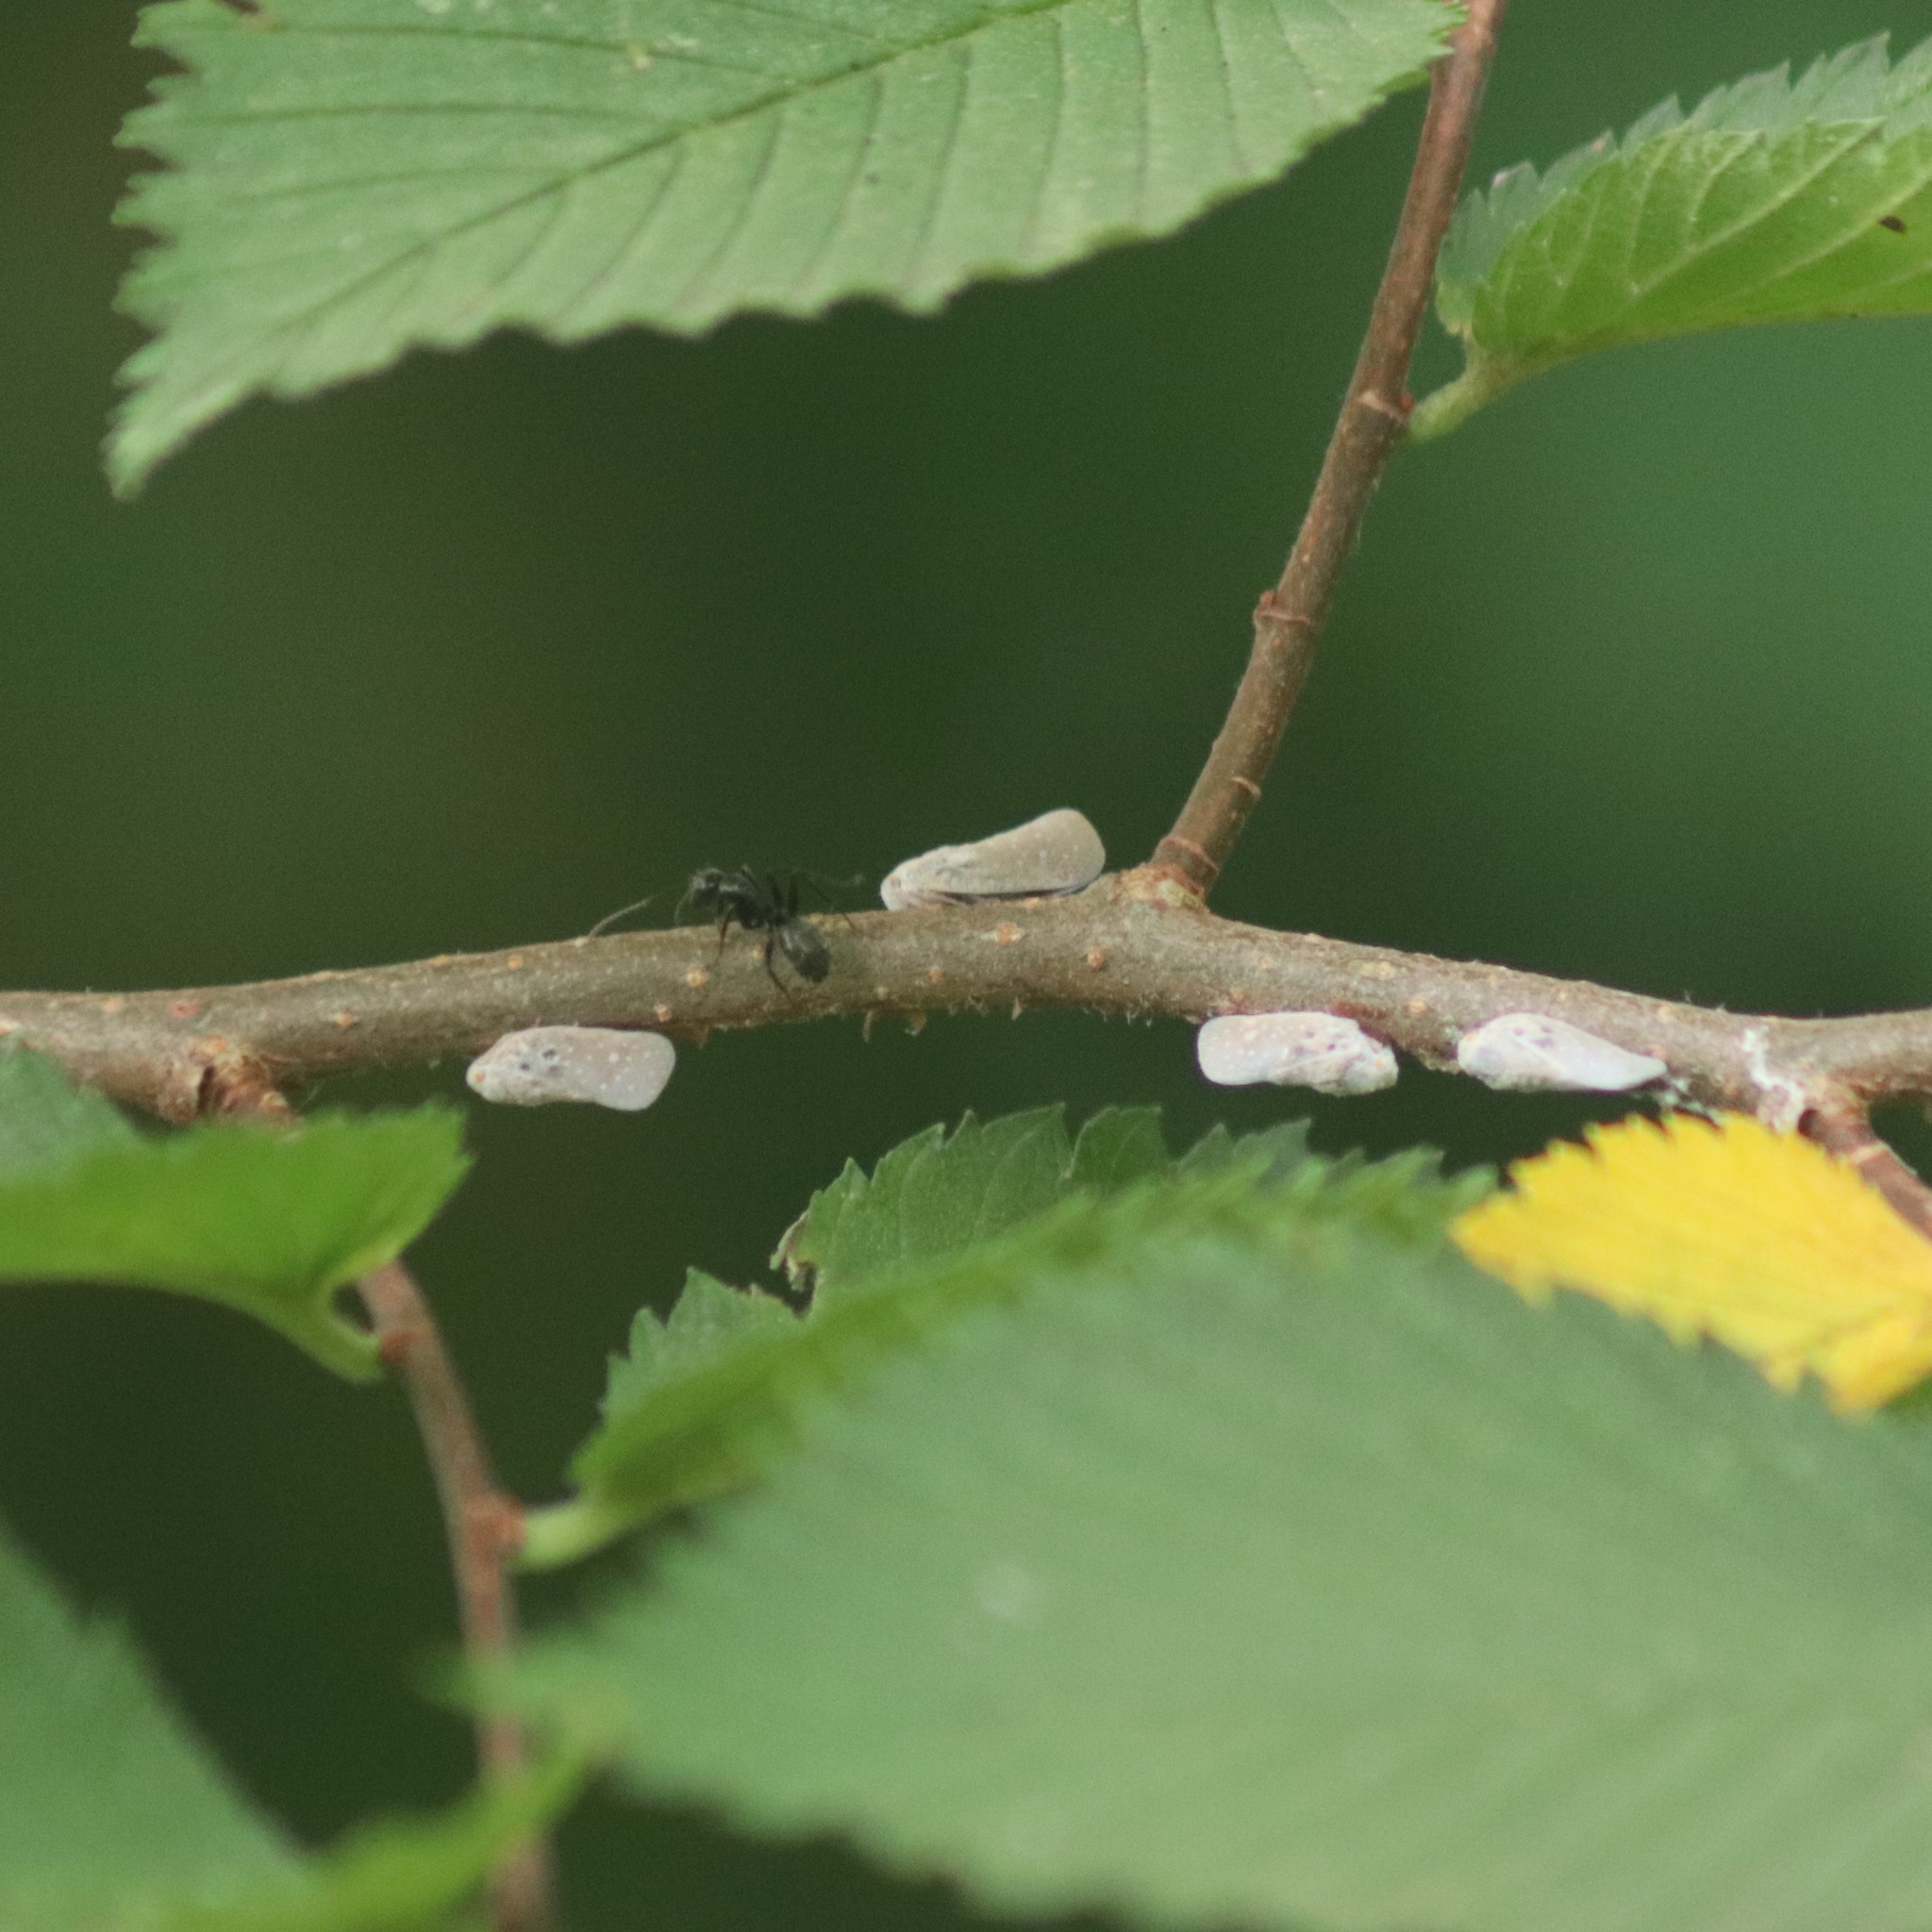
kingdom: Animalia
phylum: Arthropoda
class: Insecta
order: Hemiptera
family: Flatidae
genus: Metcalfa
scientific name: Metcalfa pruinosa
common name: Citrus flatid planthopper
